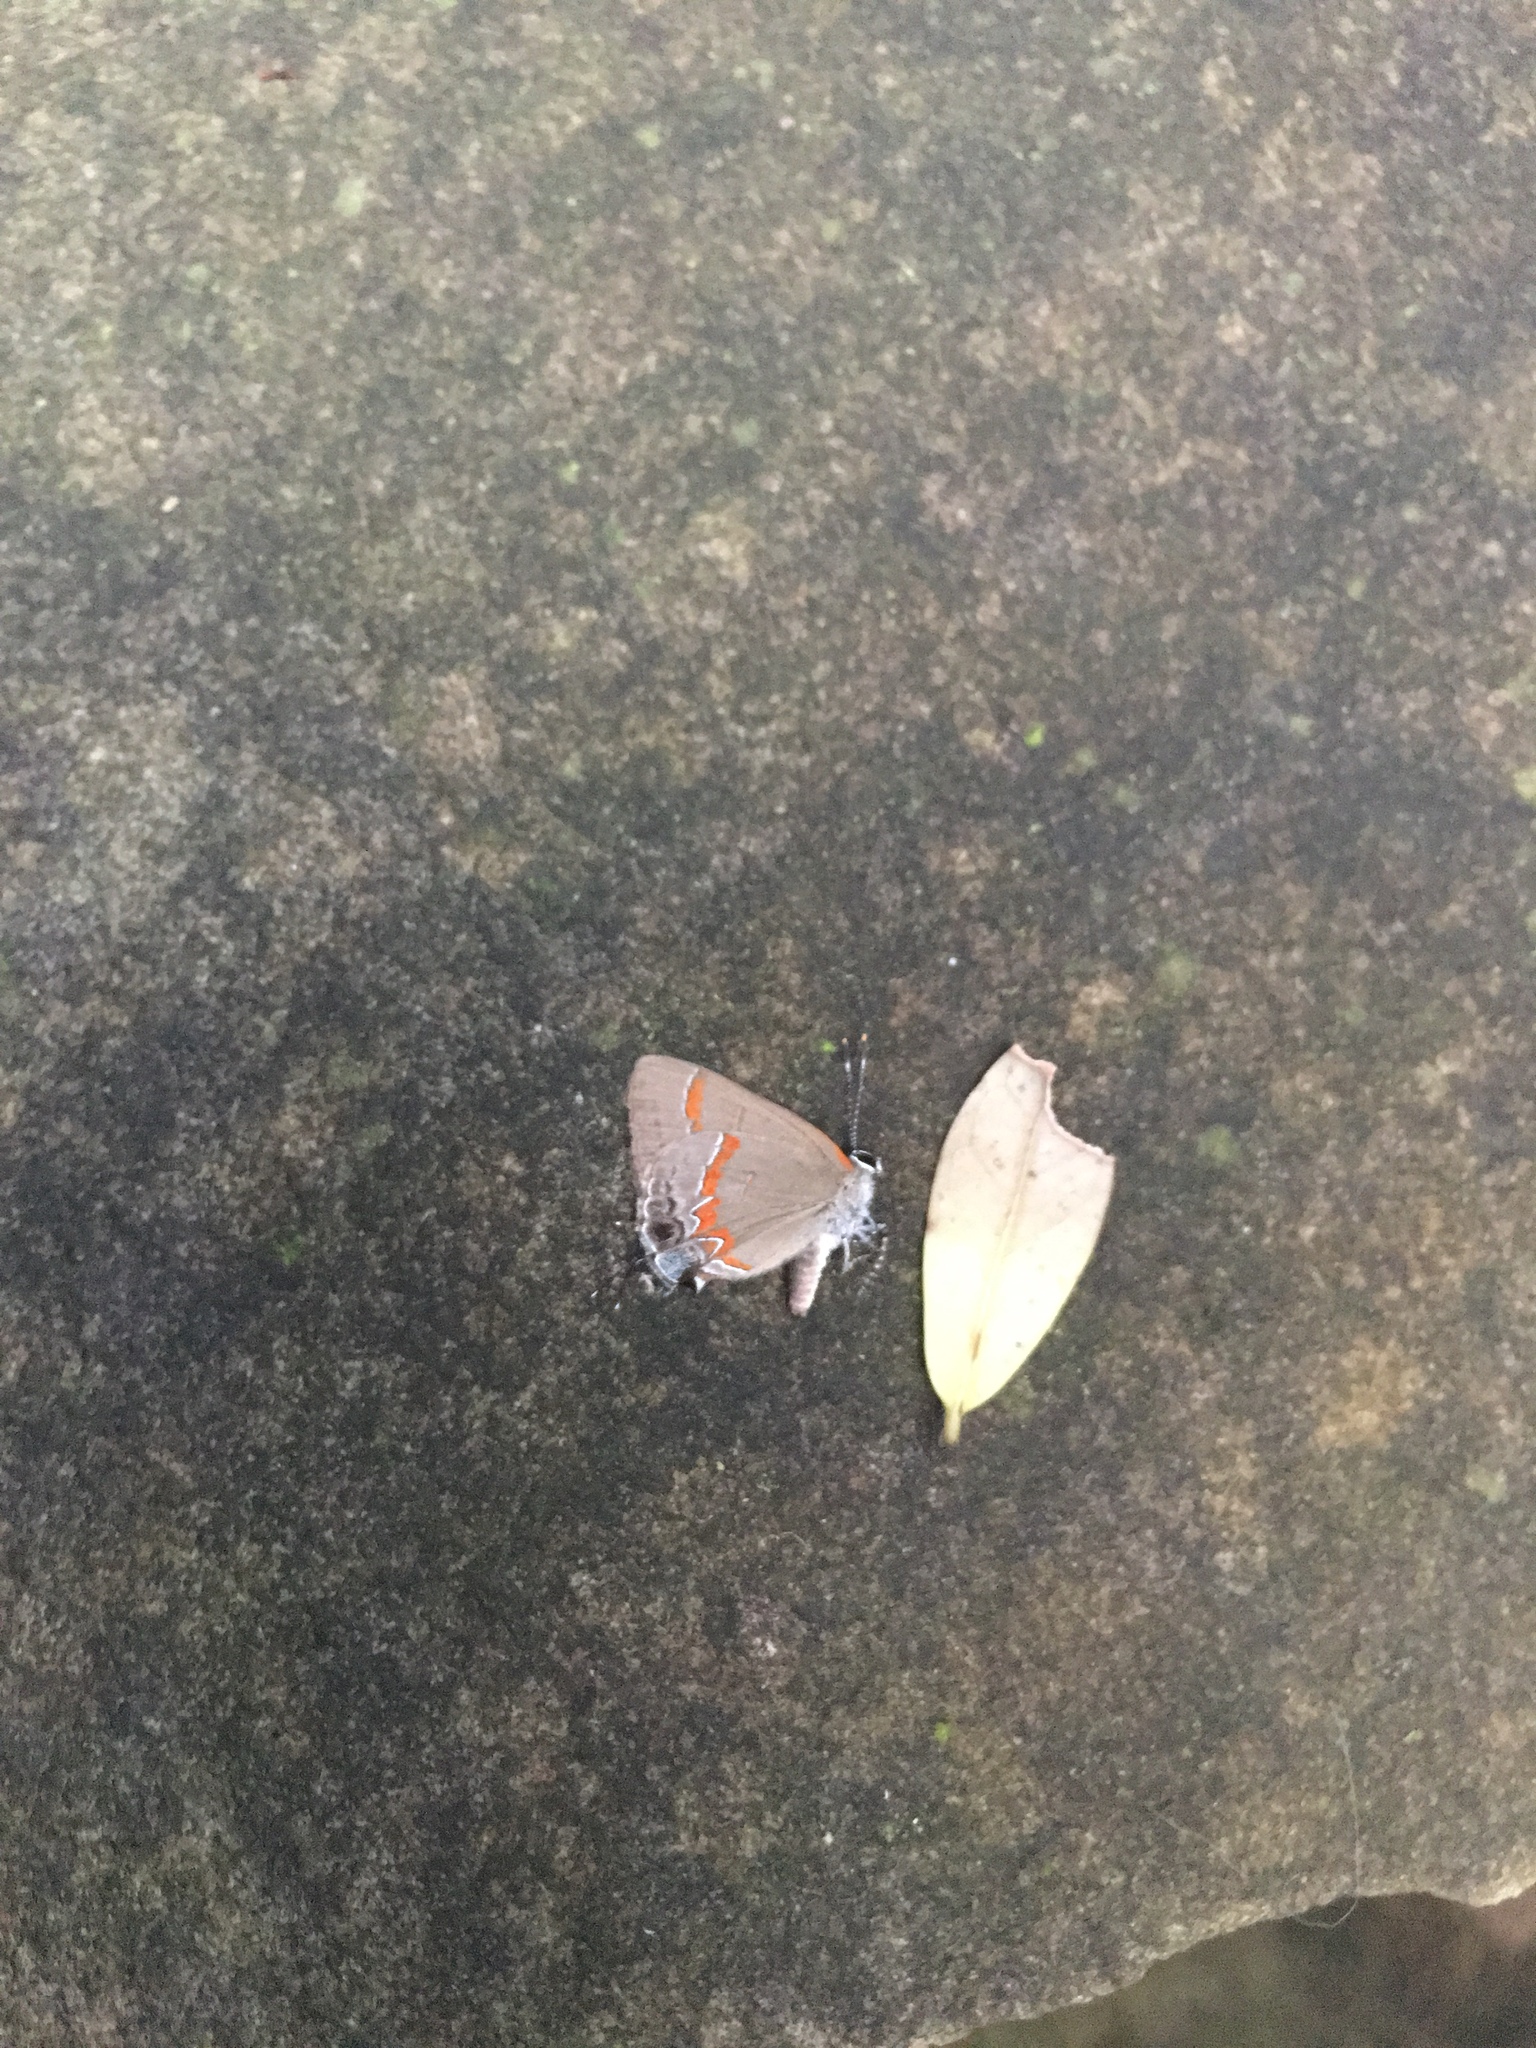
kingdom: Animalia
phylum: Arthropoda
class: Insecta
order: Lepidoptera
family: Lycaenidae
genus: Calycopis
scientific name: Calycopis cecrops
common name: Red-banded hairstreak
